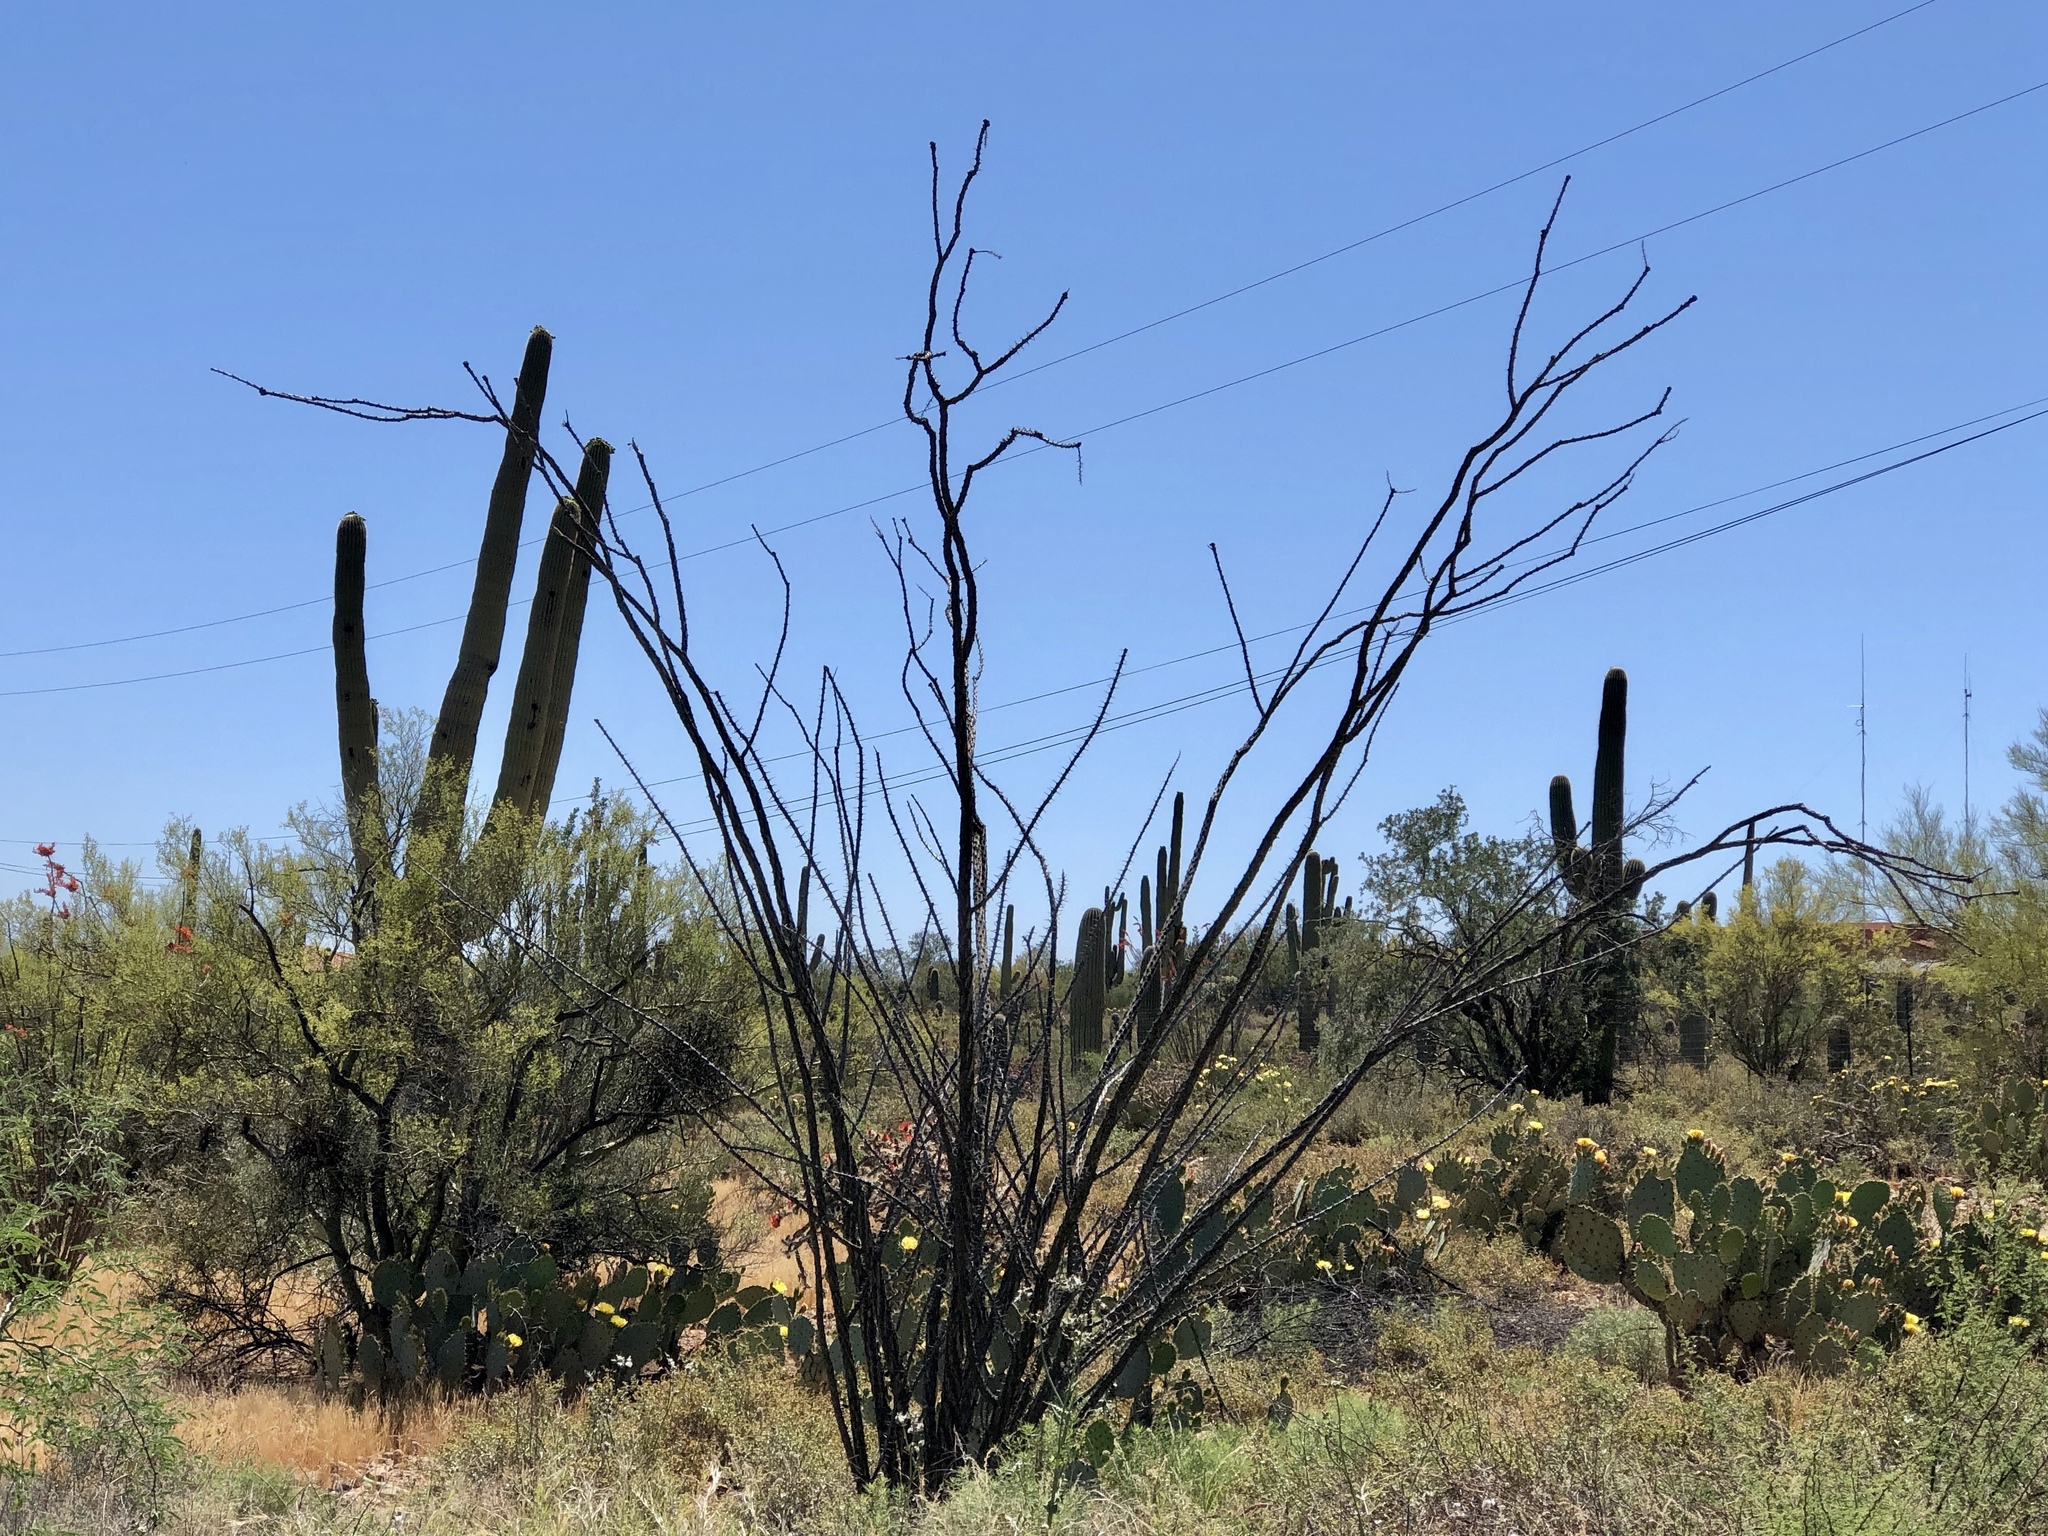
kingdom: Plantae
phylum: Tracheophyta
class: Magnoliopsida
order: Ericales
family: Fouquieriaceae
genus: Fouquieria
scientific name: Fouquieria splendens
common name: Vine-cactus
